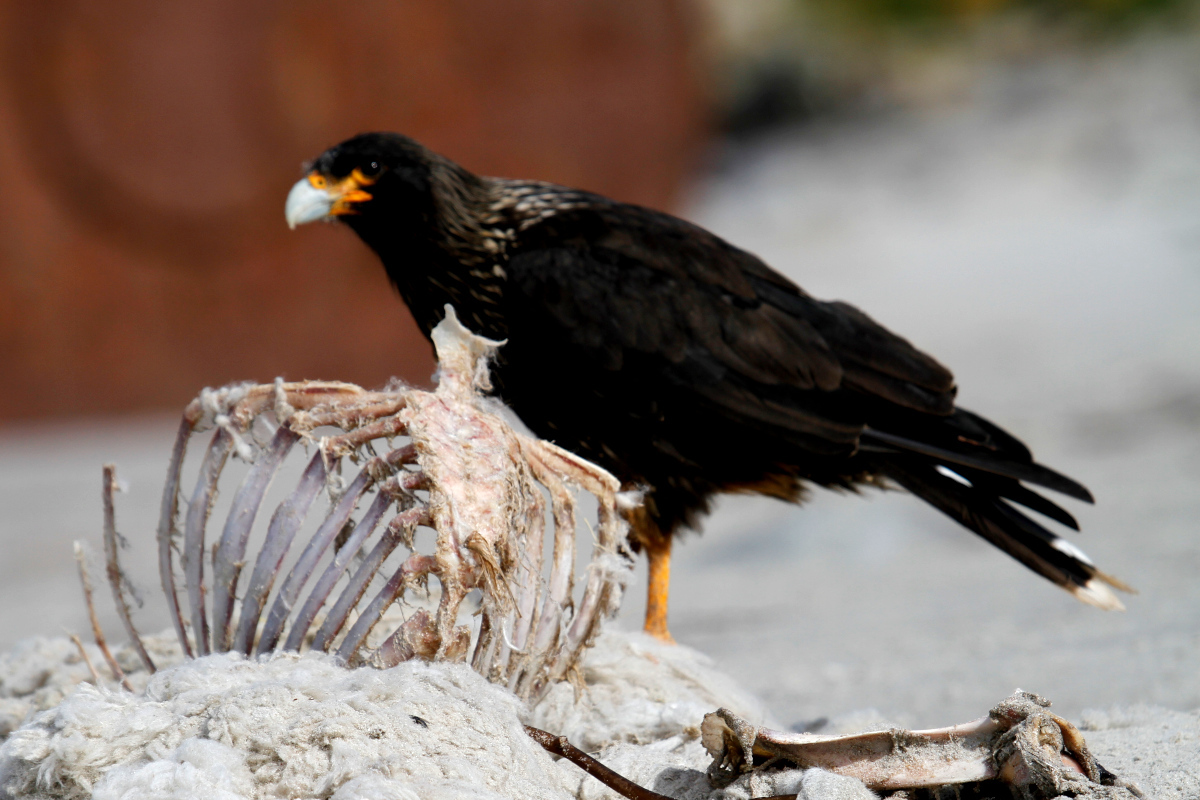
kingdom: Animalia
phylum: Chordata
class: Aves
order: Falconiformes
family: Falconidae
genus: Daptrius
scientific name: Daptrius
